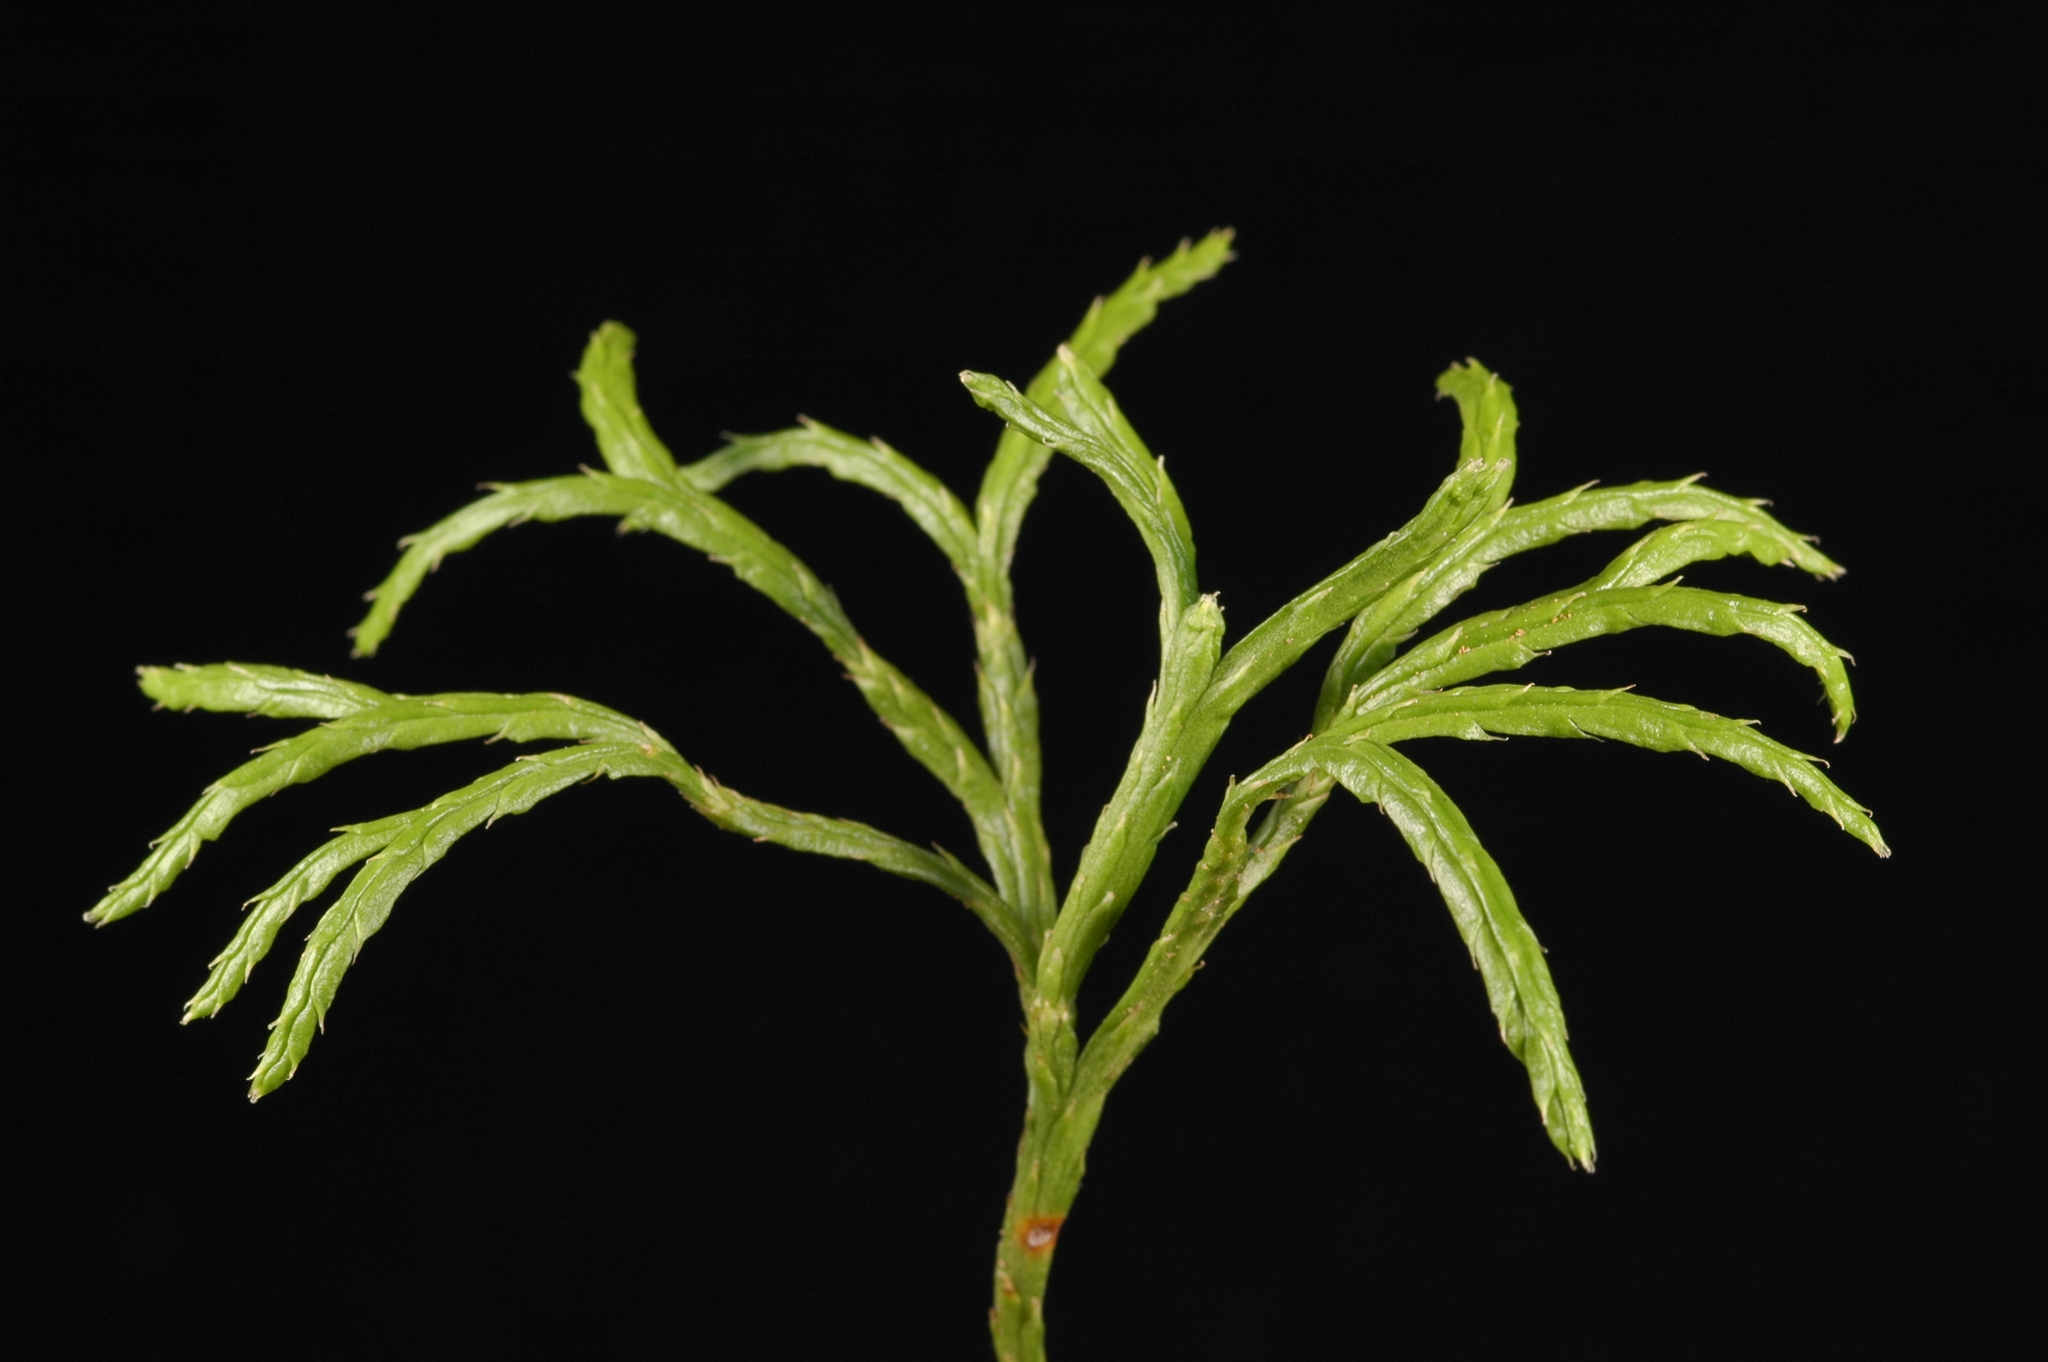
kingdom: Plantae
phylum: Tracheophyta
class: Lycopodiopsida
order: Lycopodiales
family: Lycopodiaceae
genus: Diphasiastrum
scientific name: Diphasiastrum complanatum
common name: Northern running-pine
